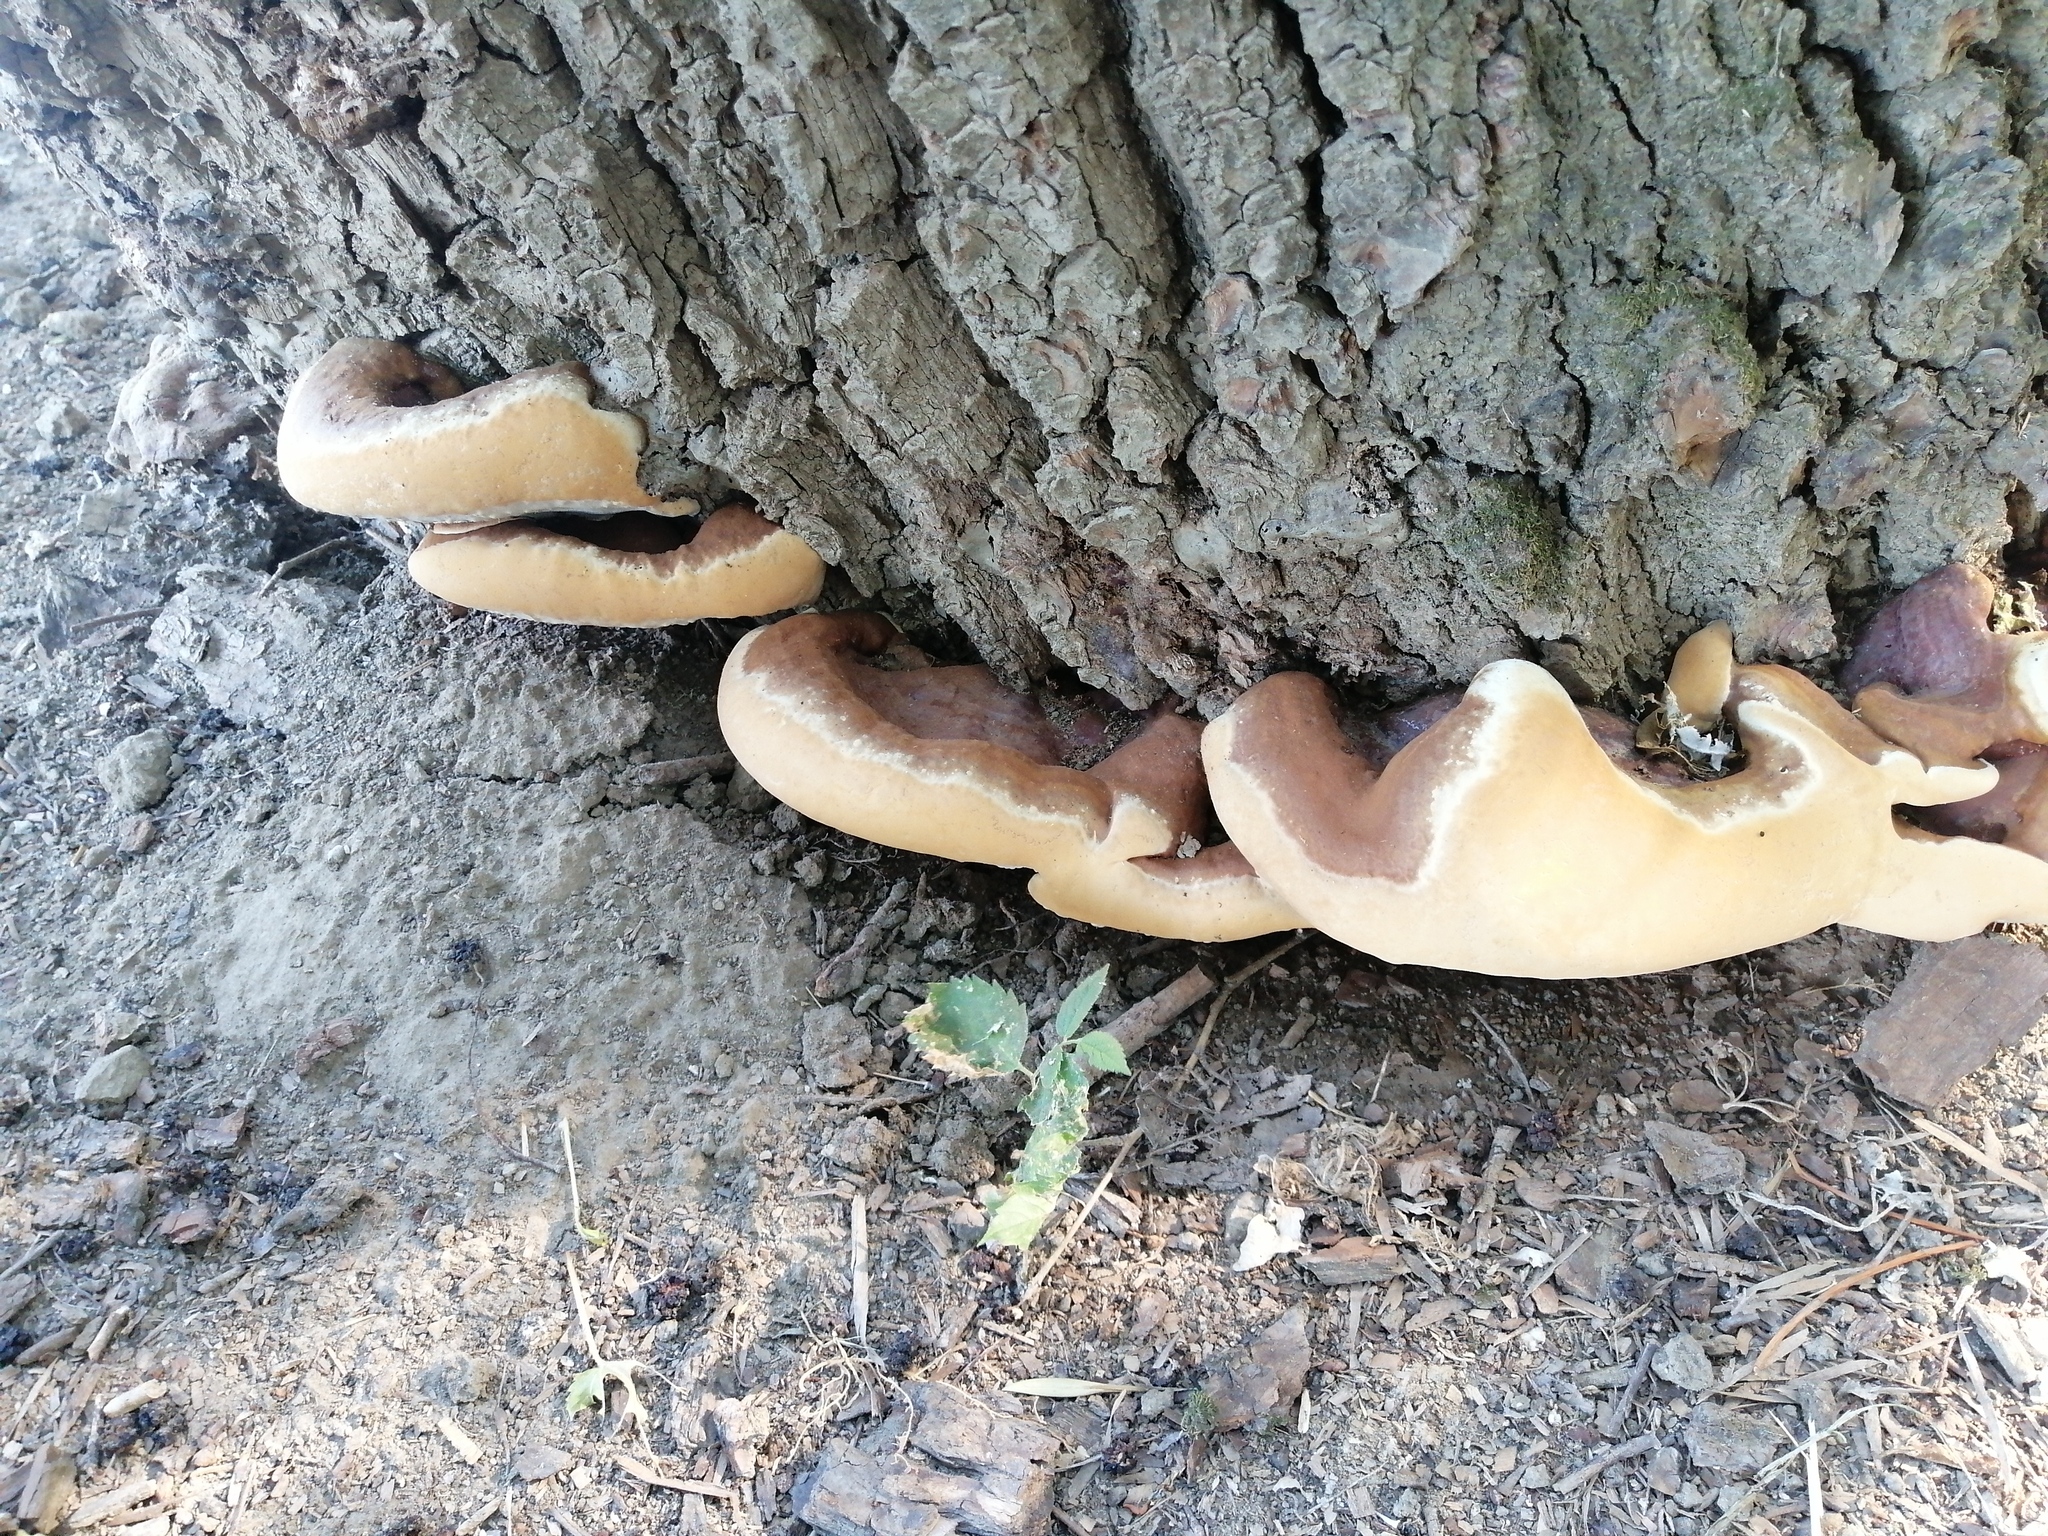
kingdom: Fungi
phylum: Basidiomycota
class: Agaricomycetes
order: Polyporales
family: Polyporaceae
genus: Ganoderma
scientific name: Ganoderma resinaceum
